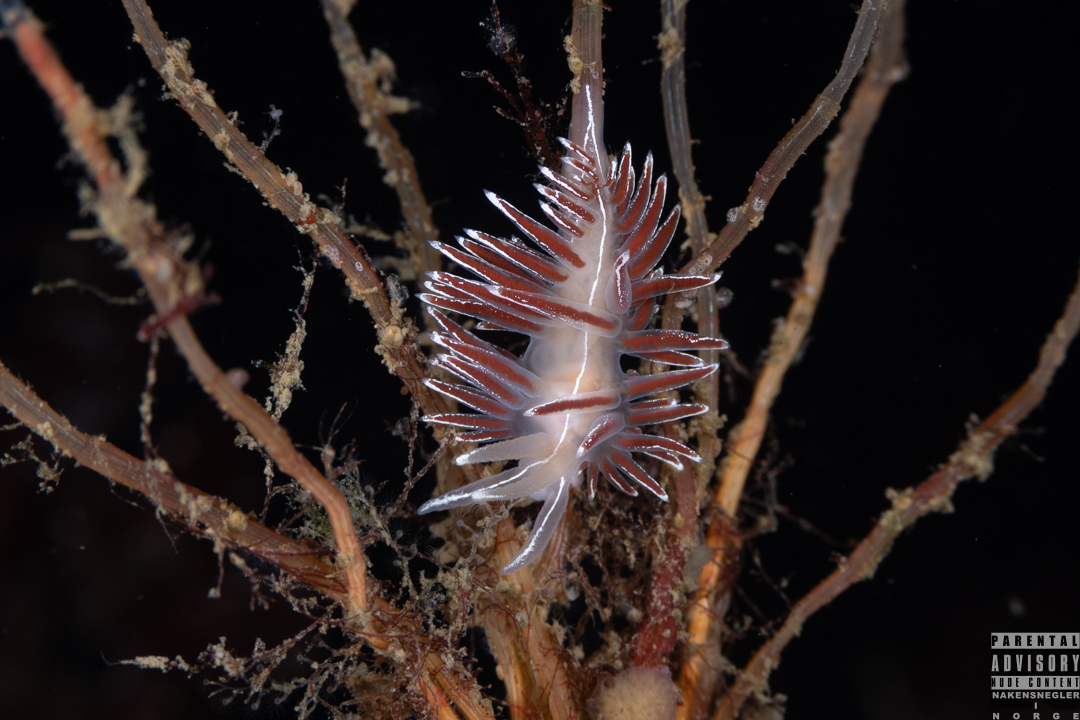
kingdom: Animalia
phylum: Mollusca
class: Gastropoda
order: Nudibranchia
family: Coryphellidae
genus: Coryphella
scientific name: Coryphella lineata
